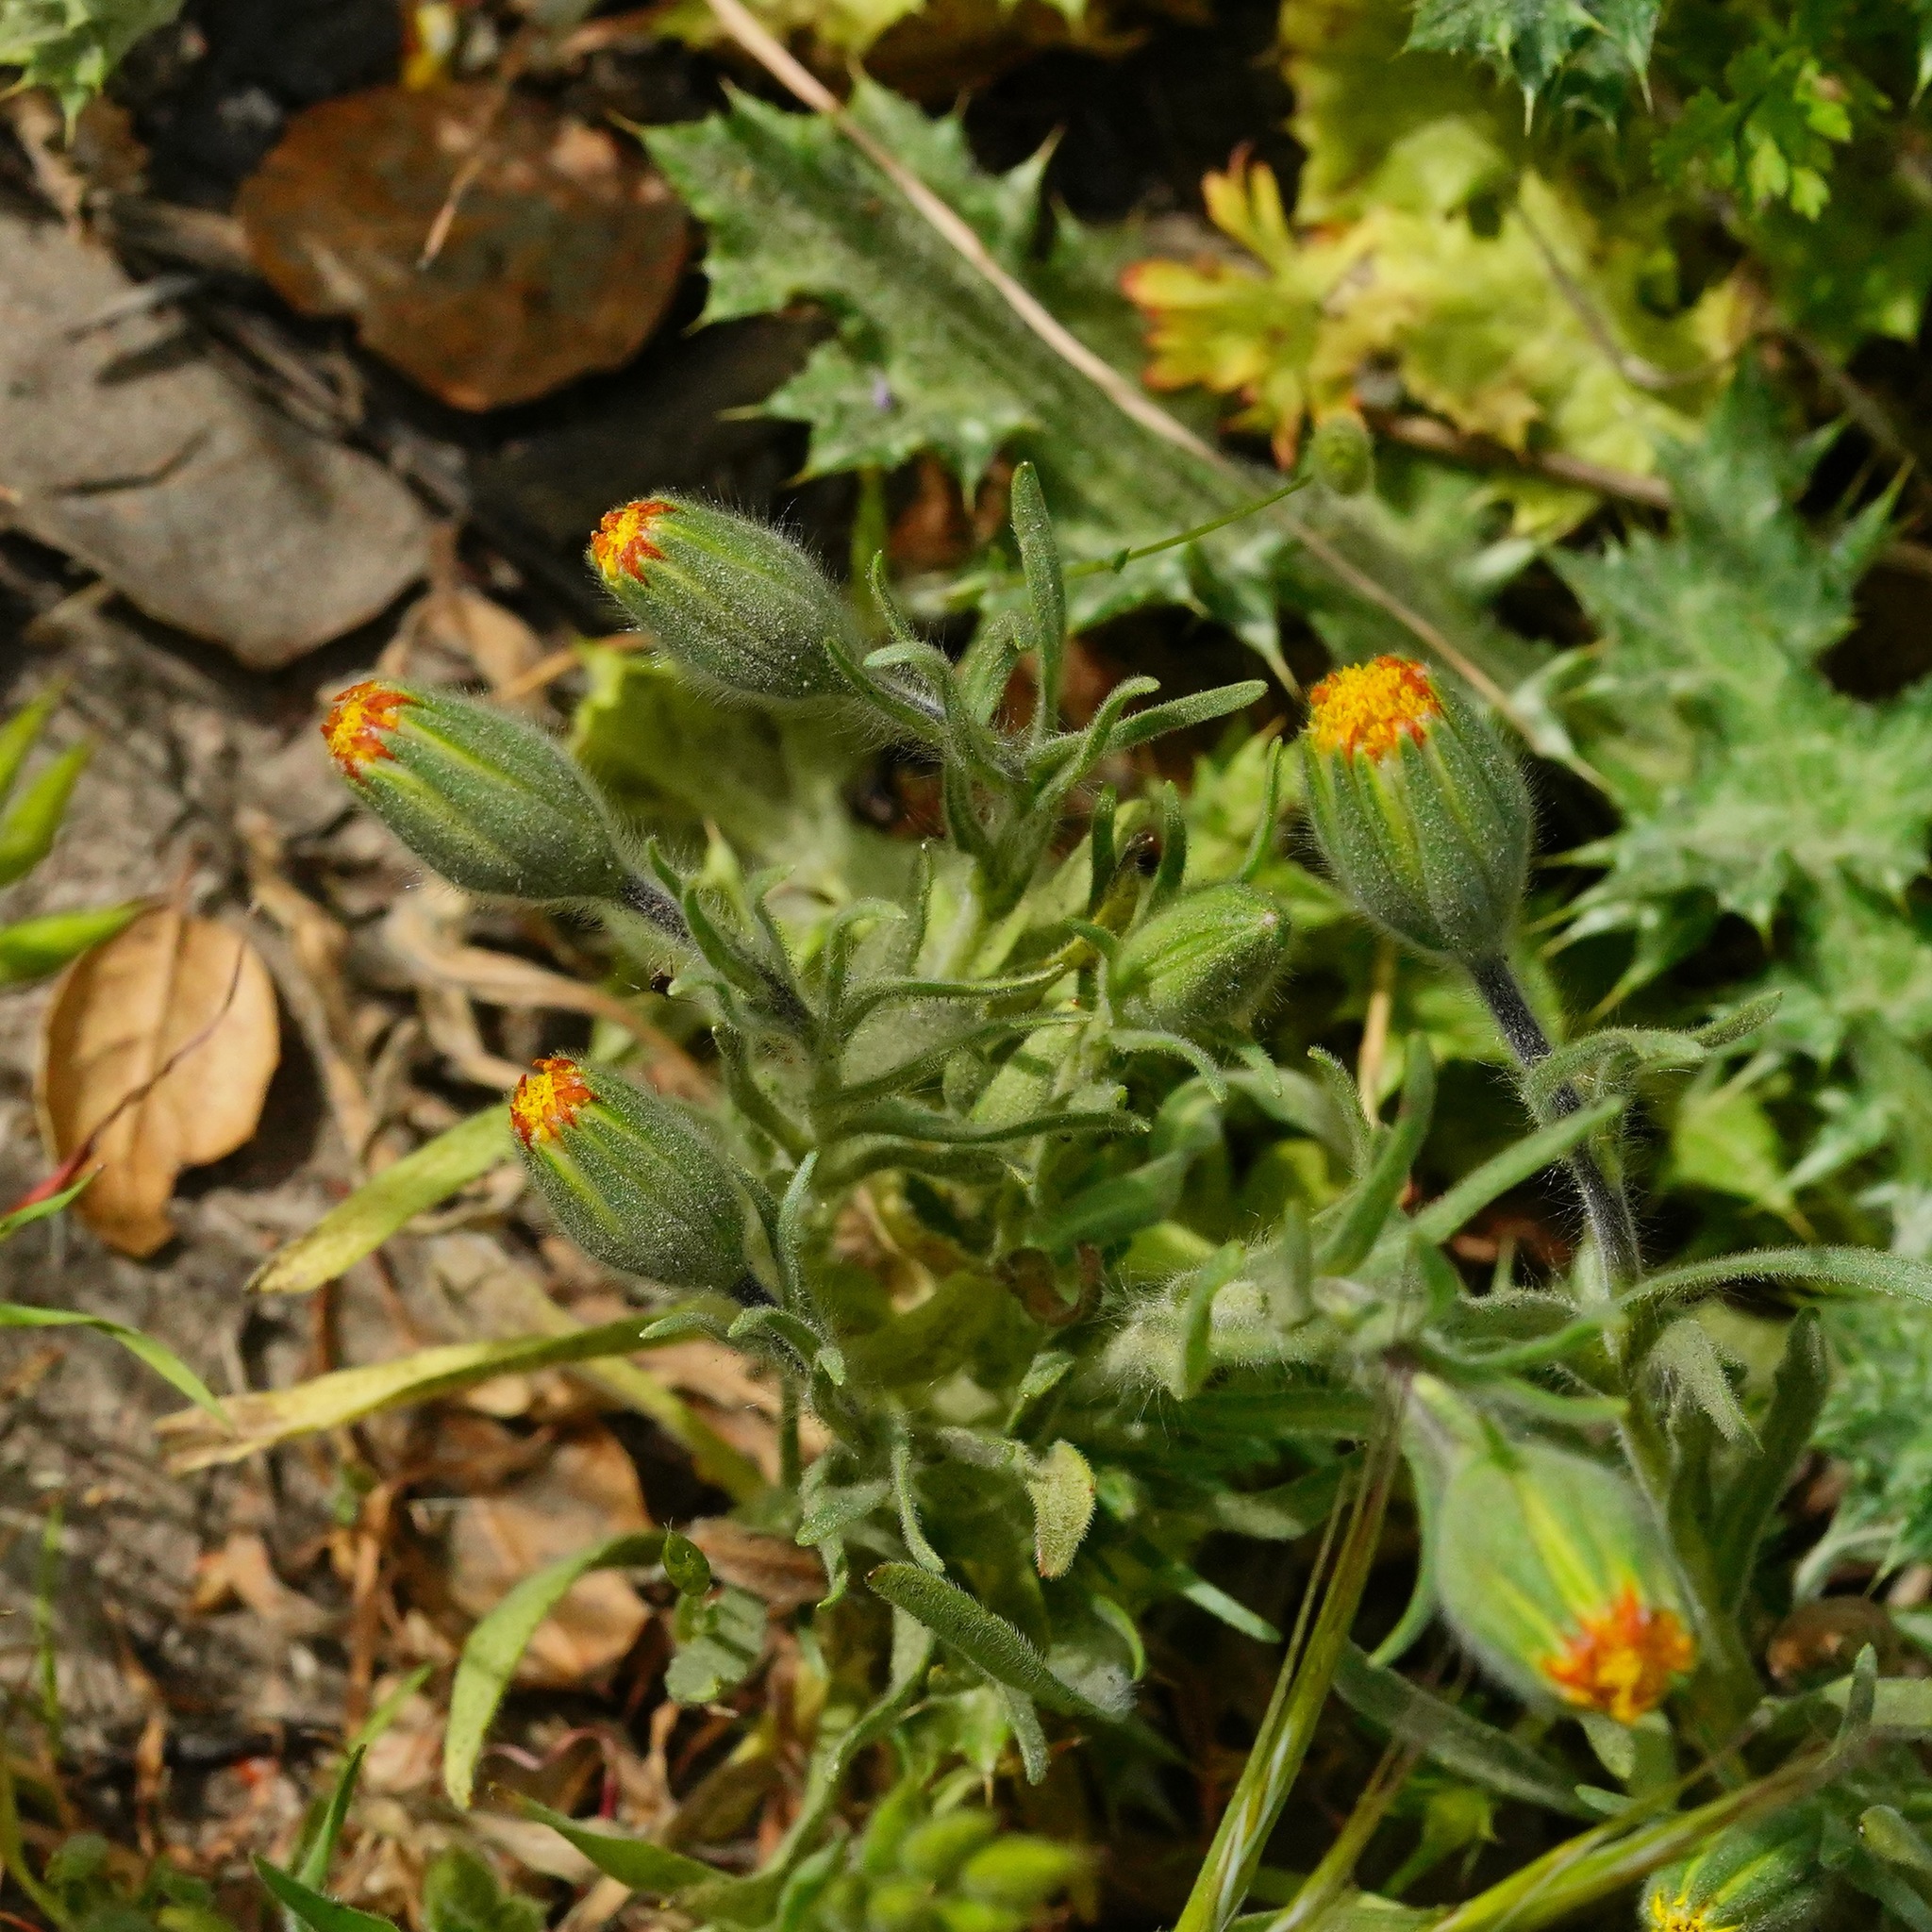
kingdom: Plantae
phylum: Tracheophyta
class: Magnoliopsida
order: Asterales
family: Asteraceae
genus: Achyrachaena
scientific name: Achyrachaena mollis
